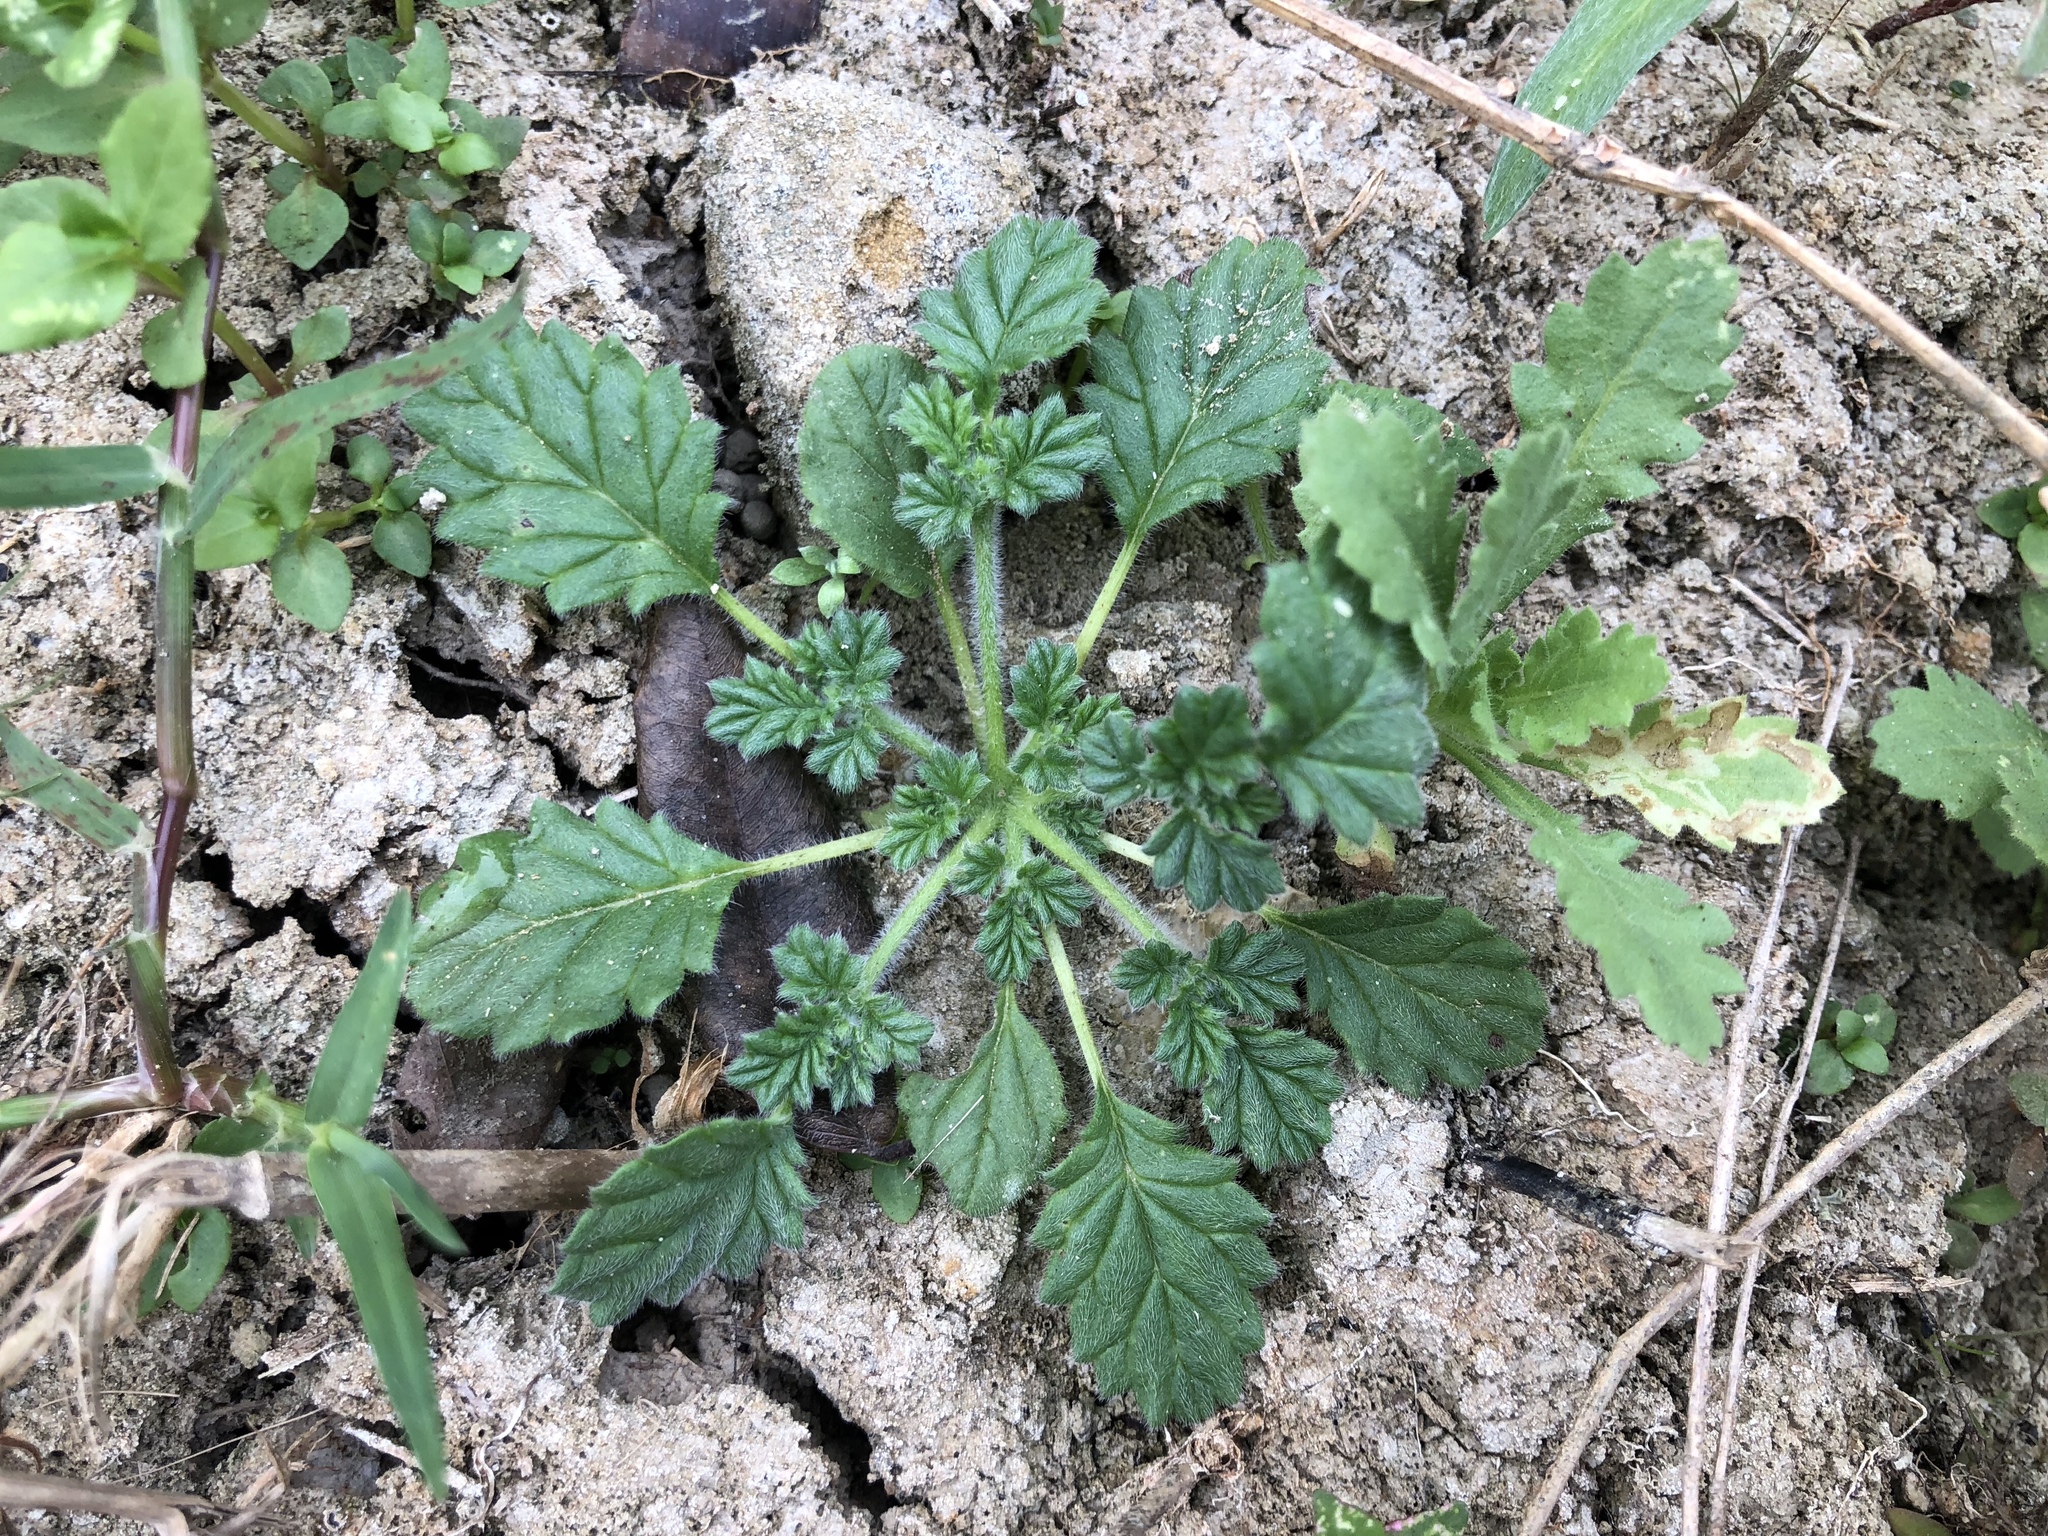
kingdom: Plantae
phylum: Tracheophyta
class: Magnoliopsida
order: Boraginales
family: Coldeniaceae
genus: Coldenia
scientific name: Coldenia procumbens
